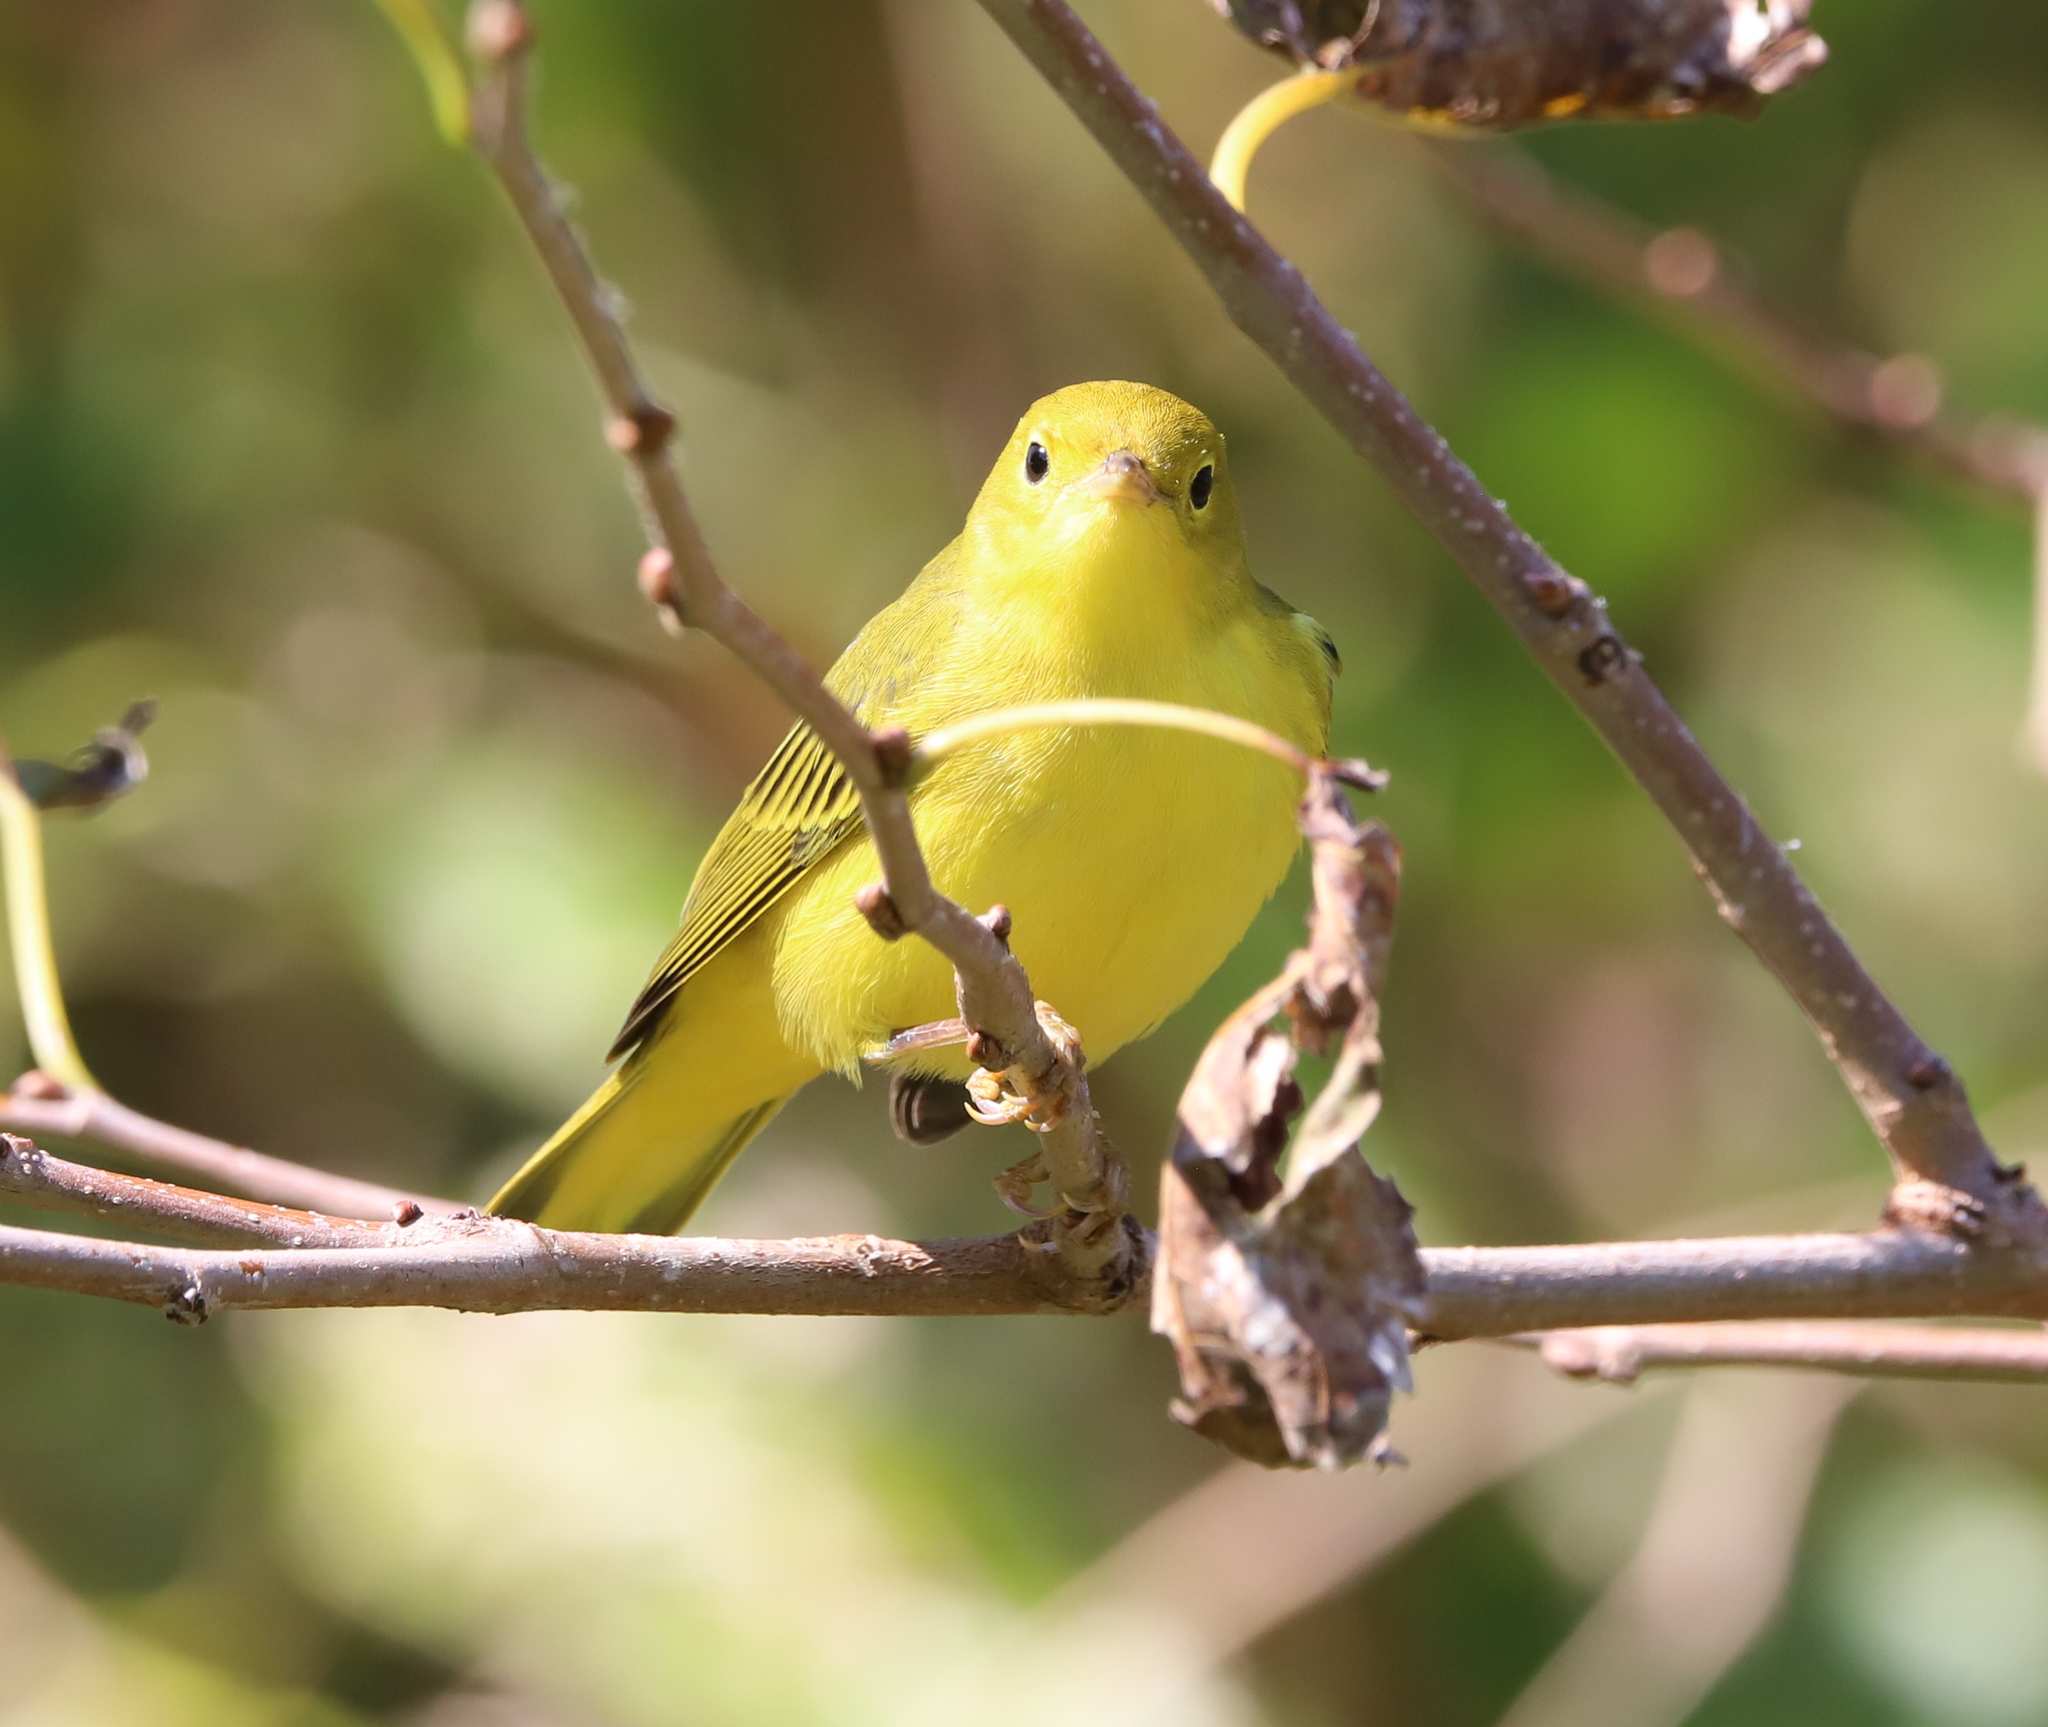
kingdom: Animalia
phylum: Chordata
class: Aves
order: Passeriformes
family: Parulidae
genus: Setophaga
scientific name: Setophaga petechia
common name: Yellow warbler
